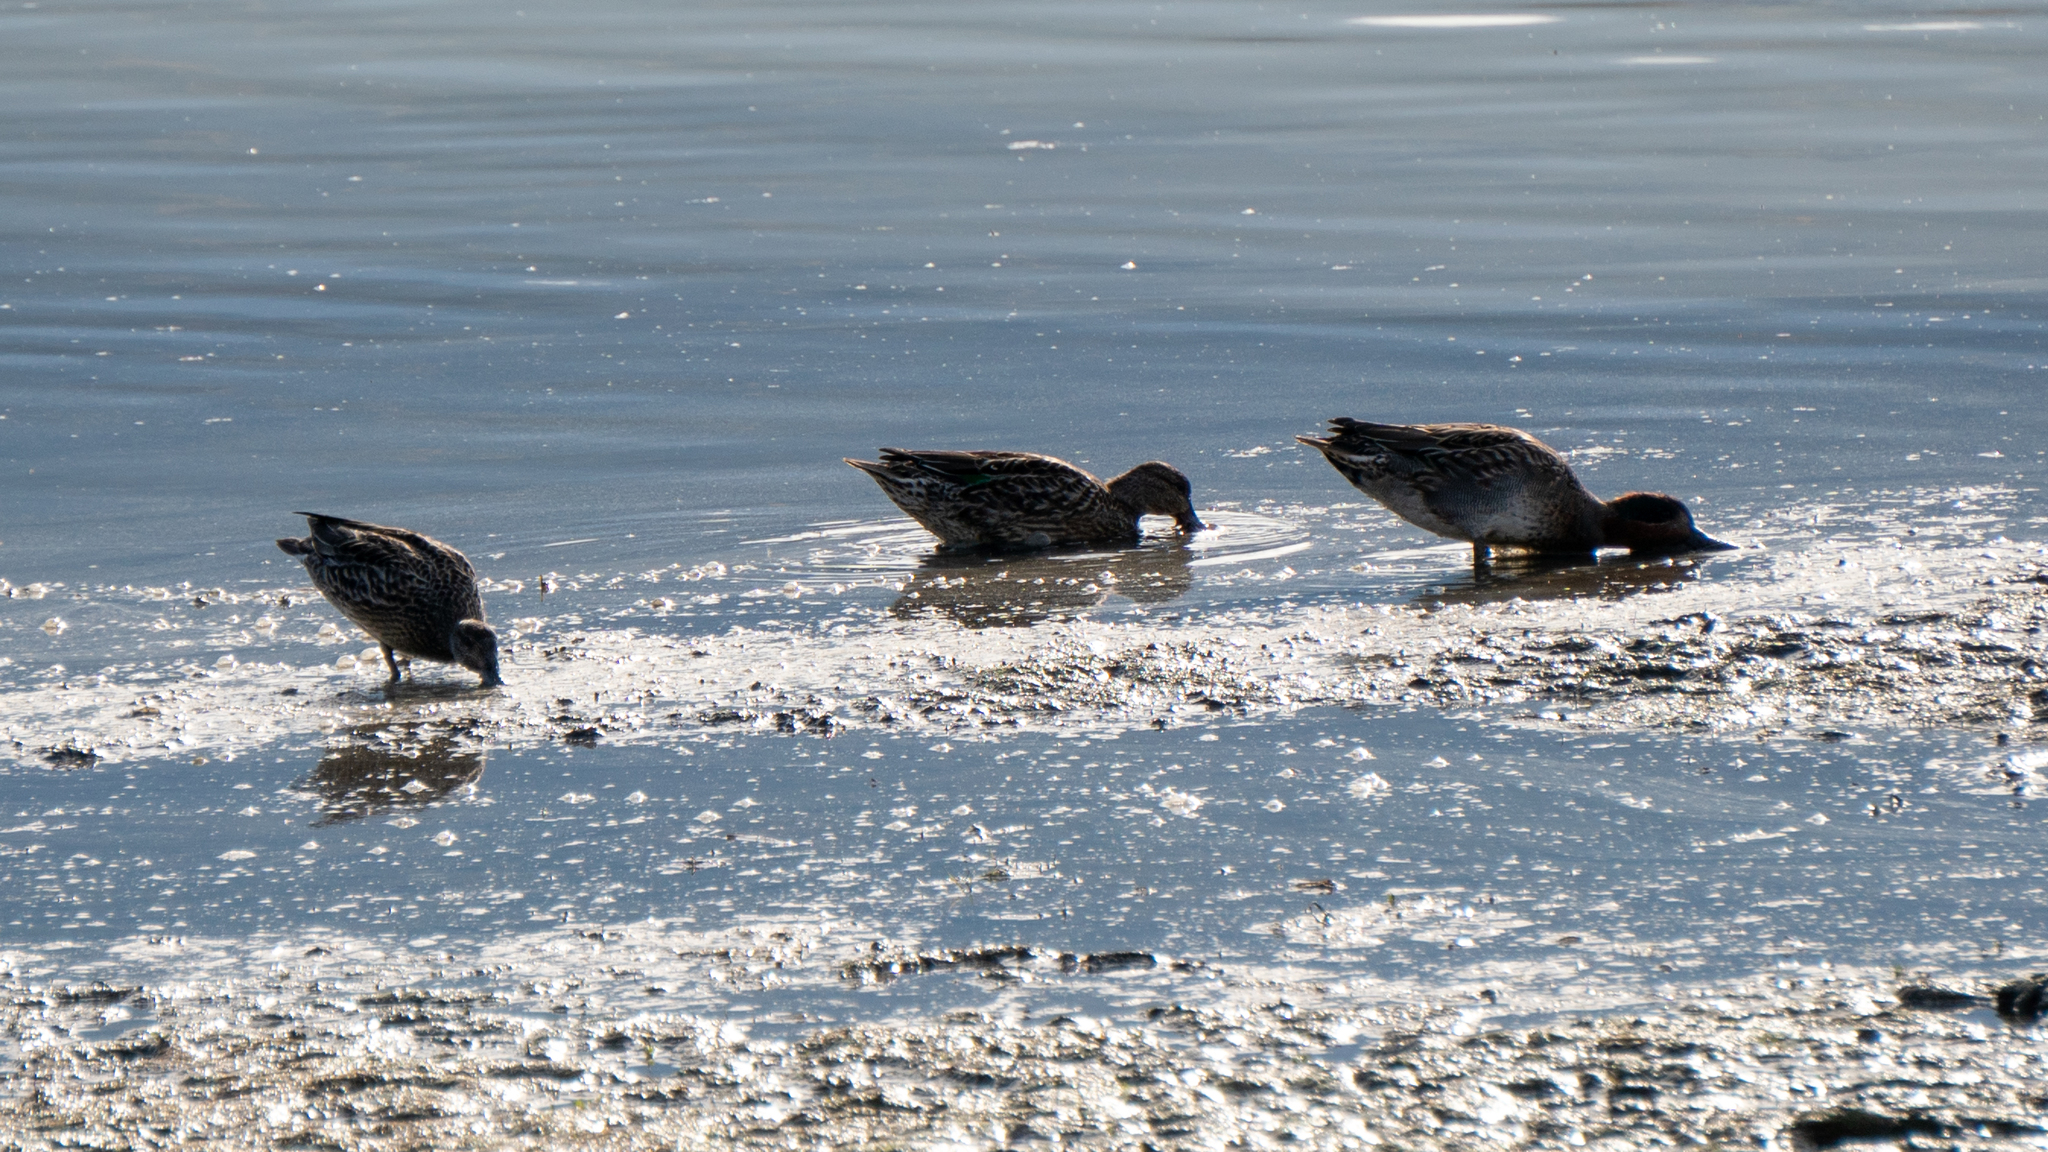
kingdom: Animalia
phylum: Chordata
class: Aves
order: Anseriformes
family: Anatidae
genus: Anas
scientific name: Anas platyrhynchos
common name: Mallard
